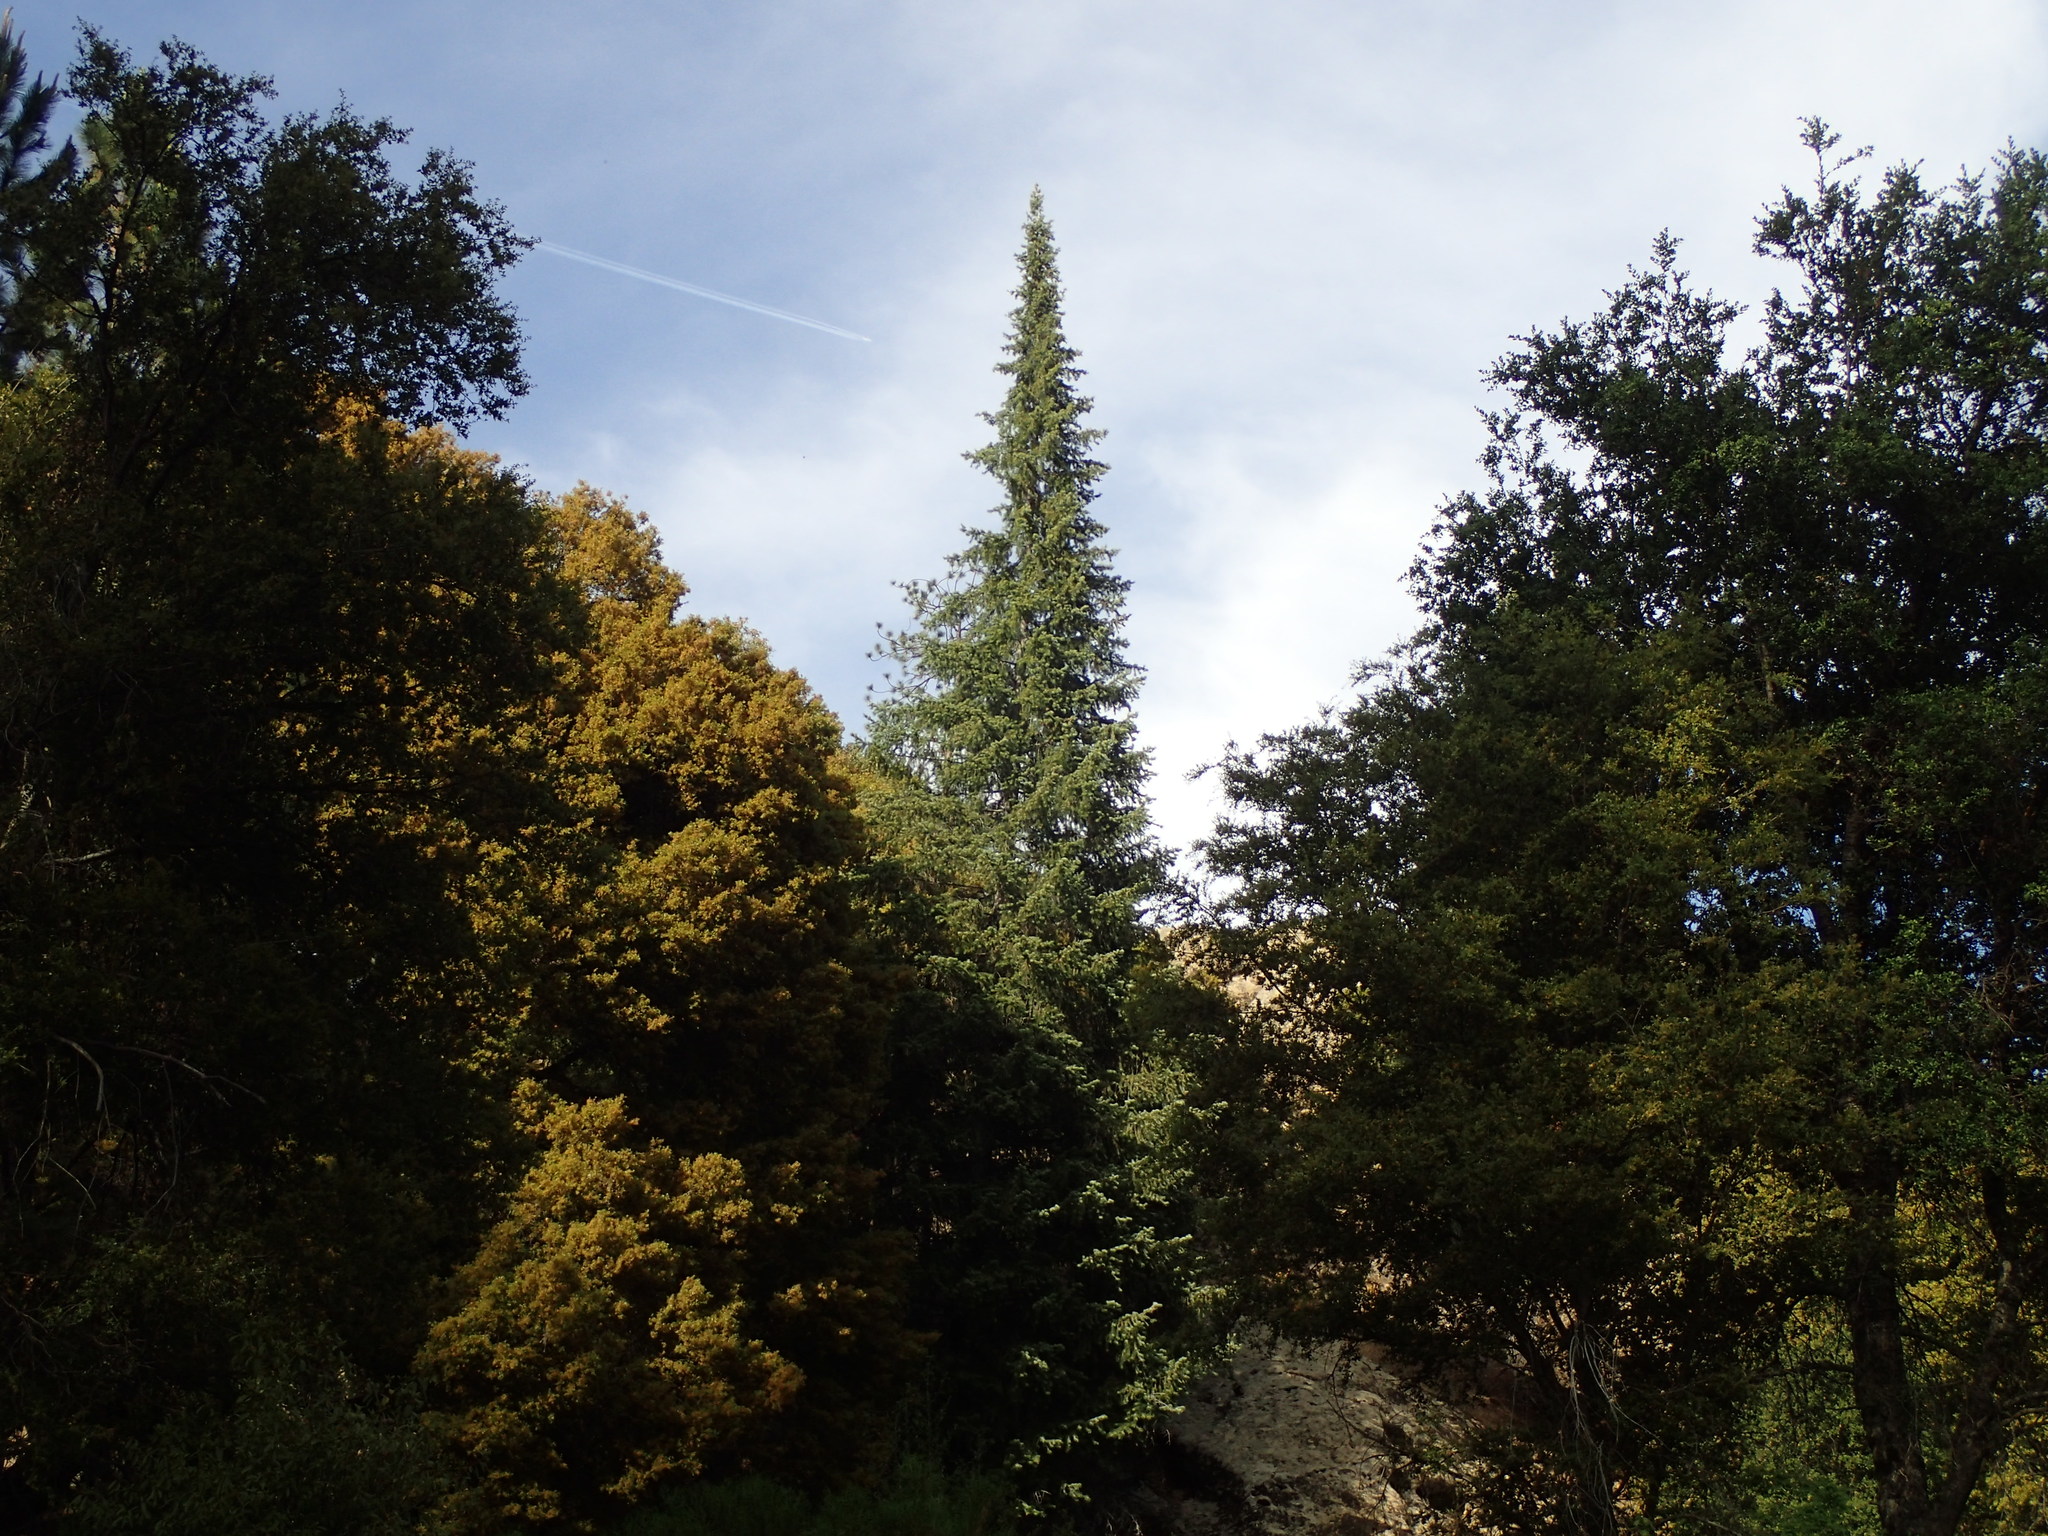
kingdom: Plantae
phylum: Tracheophyta
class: Pinopsida
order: Pinales
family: Pinaceae
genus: Abies
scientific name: Abies bracteata
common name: Bristlecone fir
